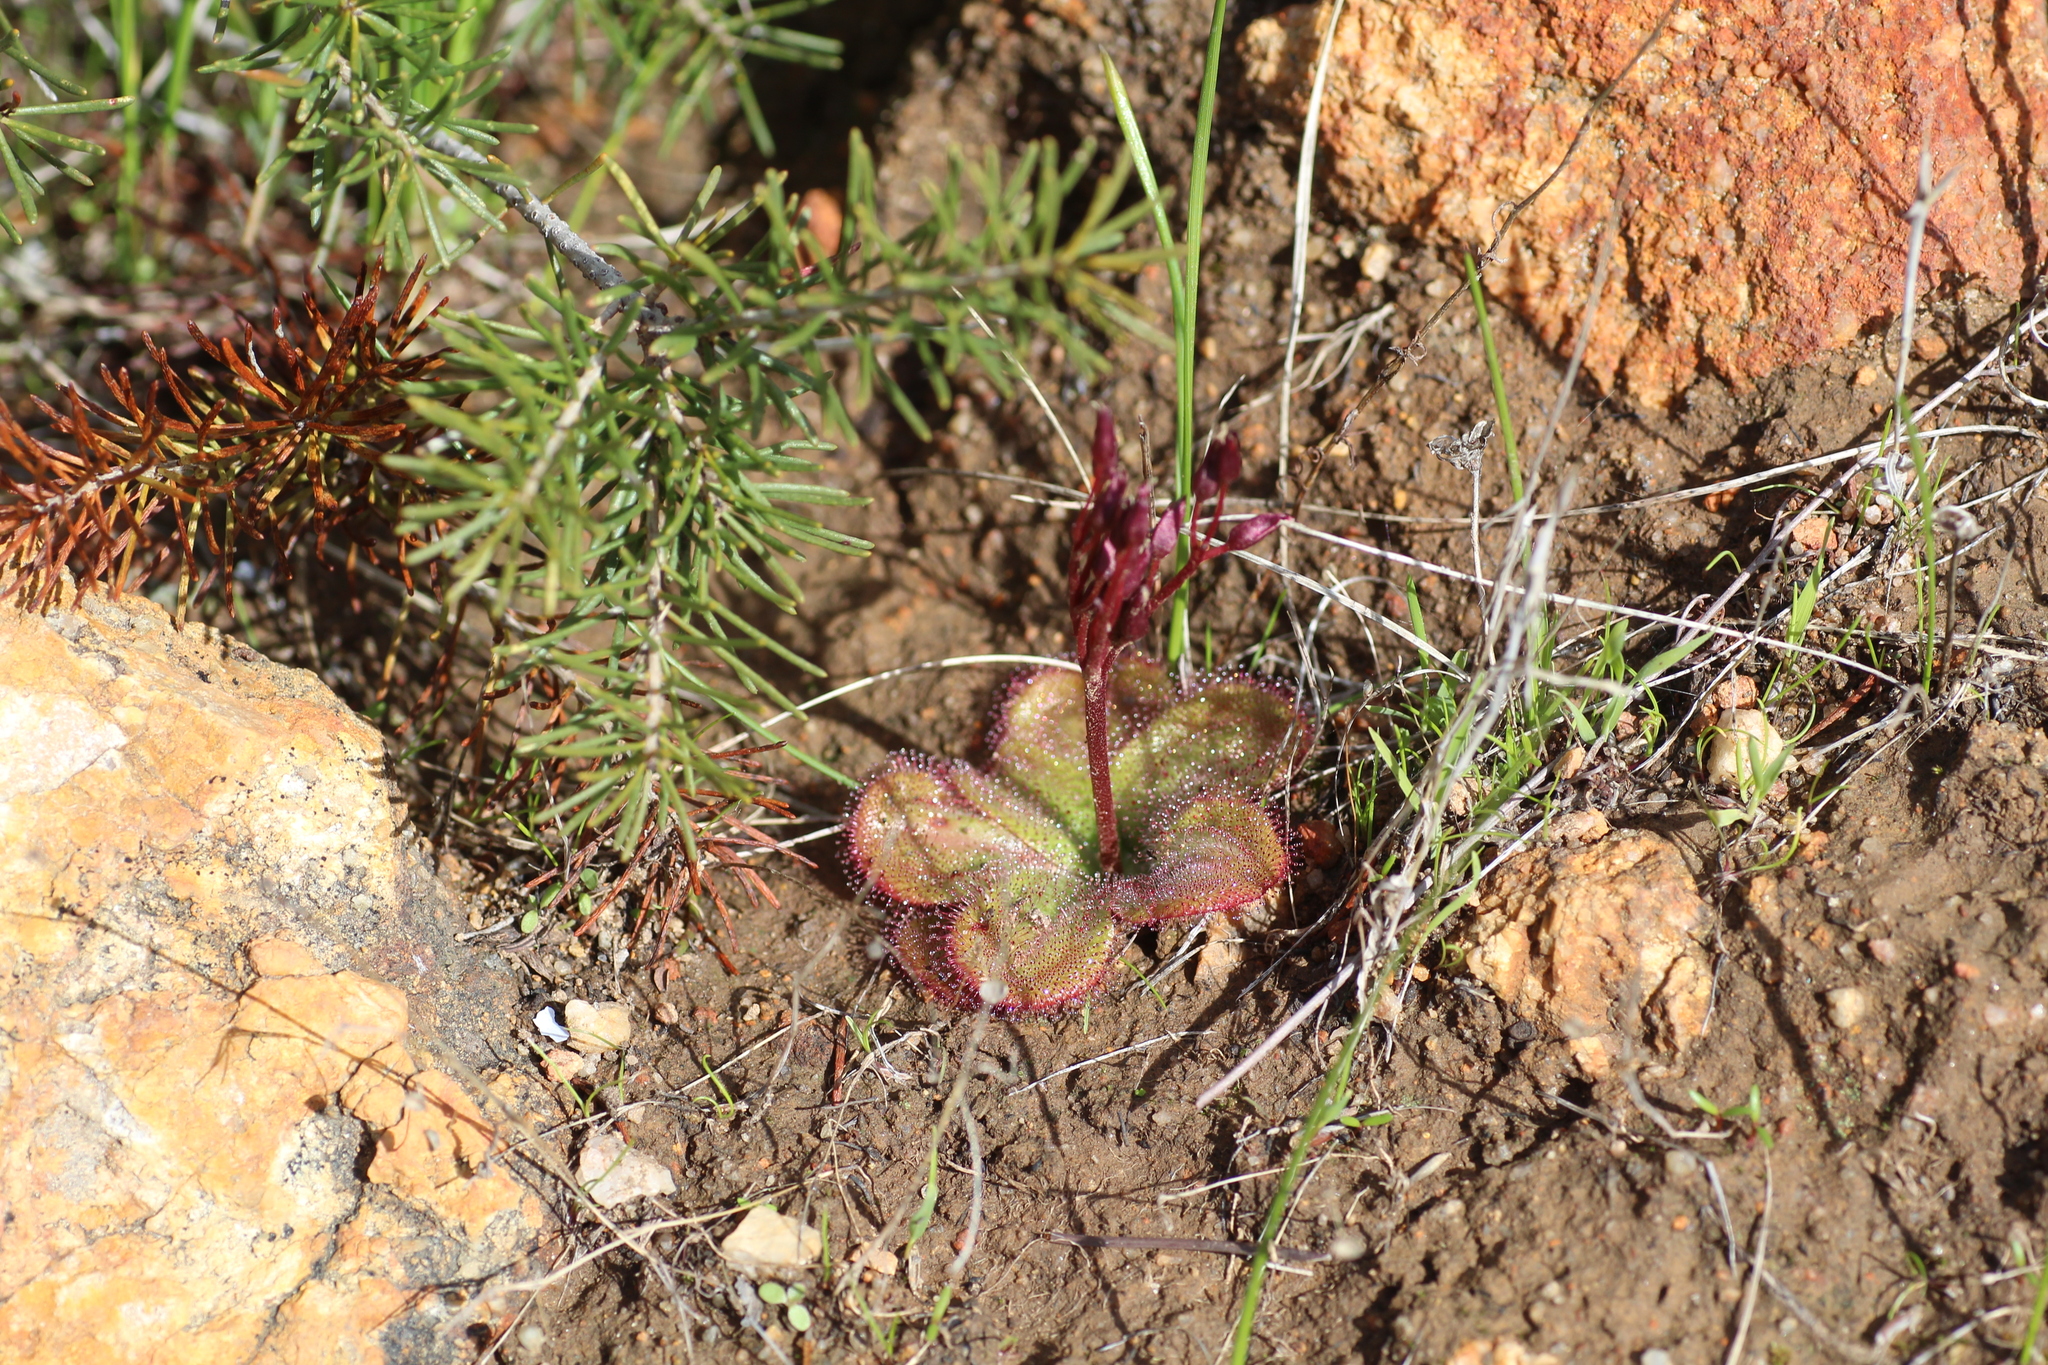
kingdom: Plantae
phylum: Tracheophyta
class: Magnoliopsida
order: Caryophyllales
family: Droseraceae
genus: Drosera
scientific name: Drosera erythrorhiza
